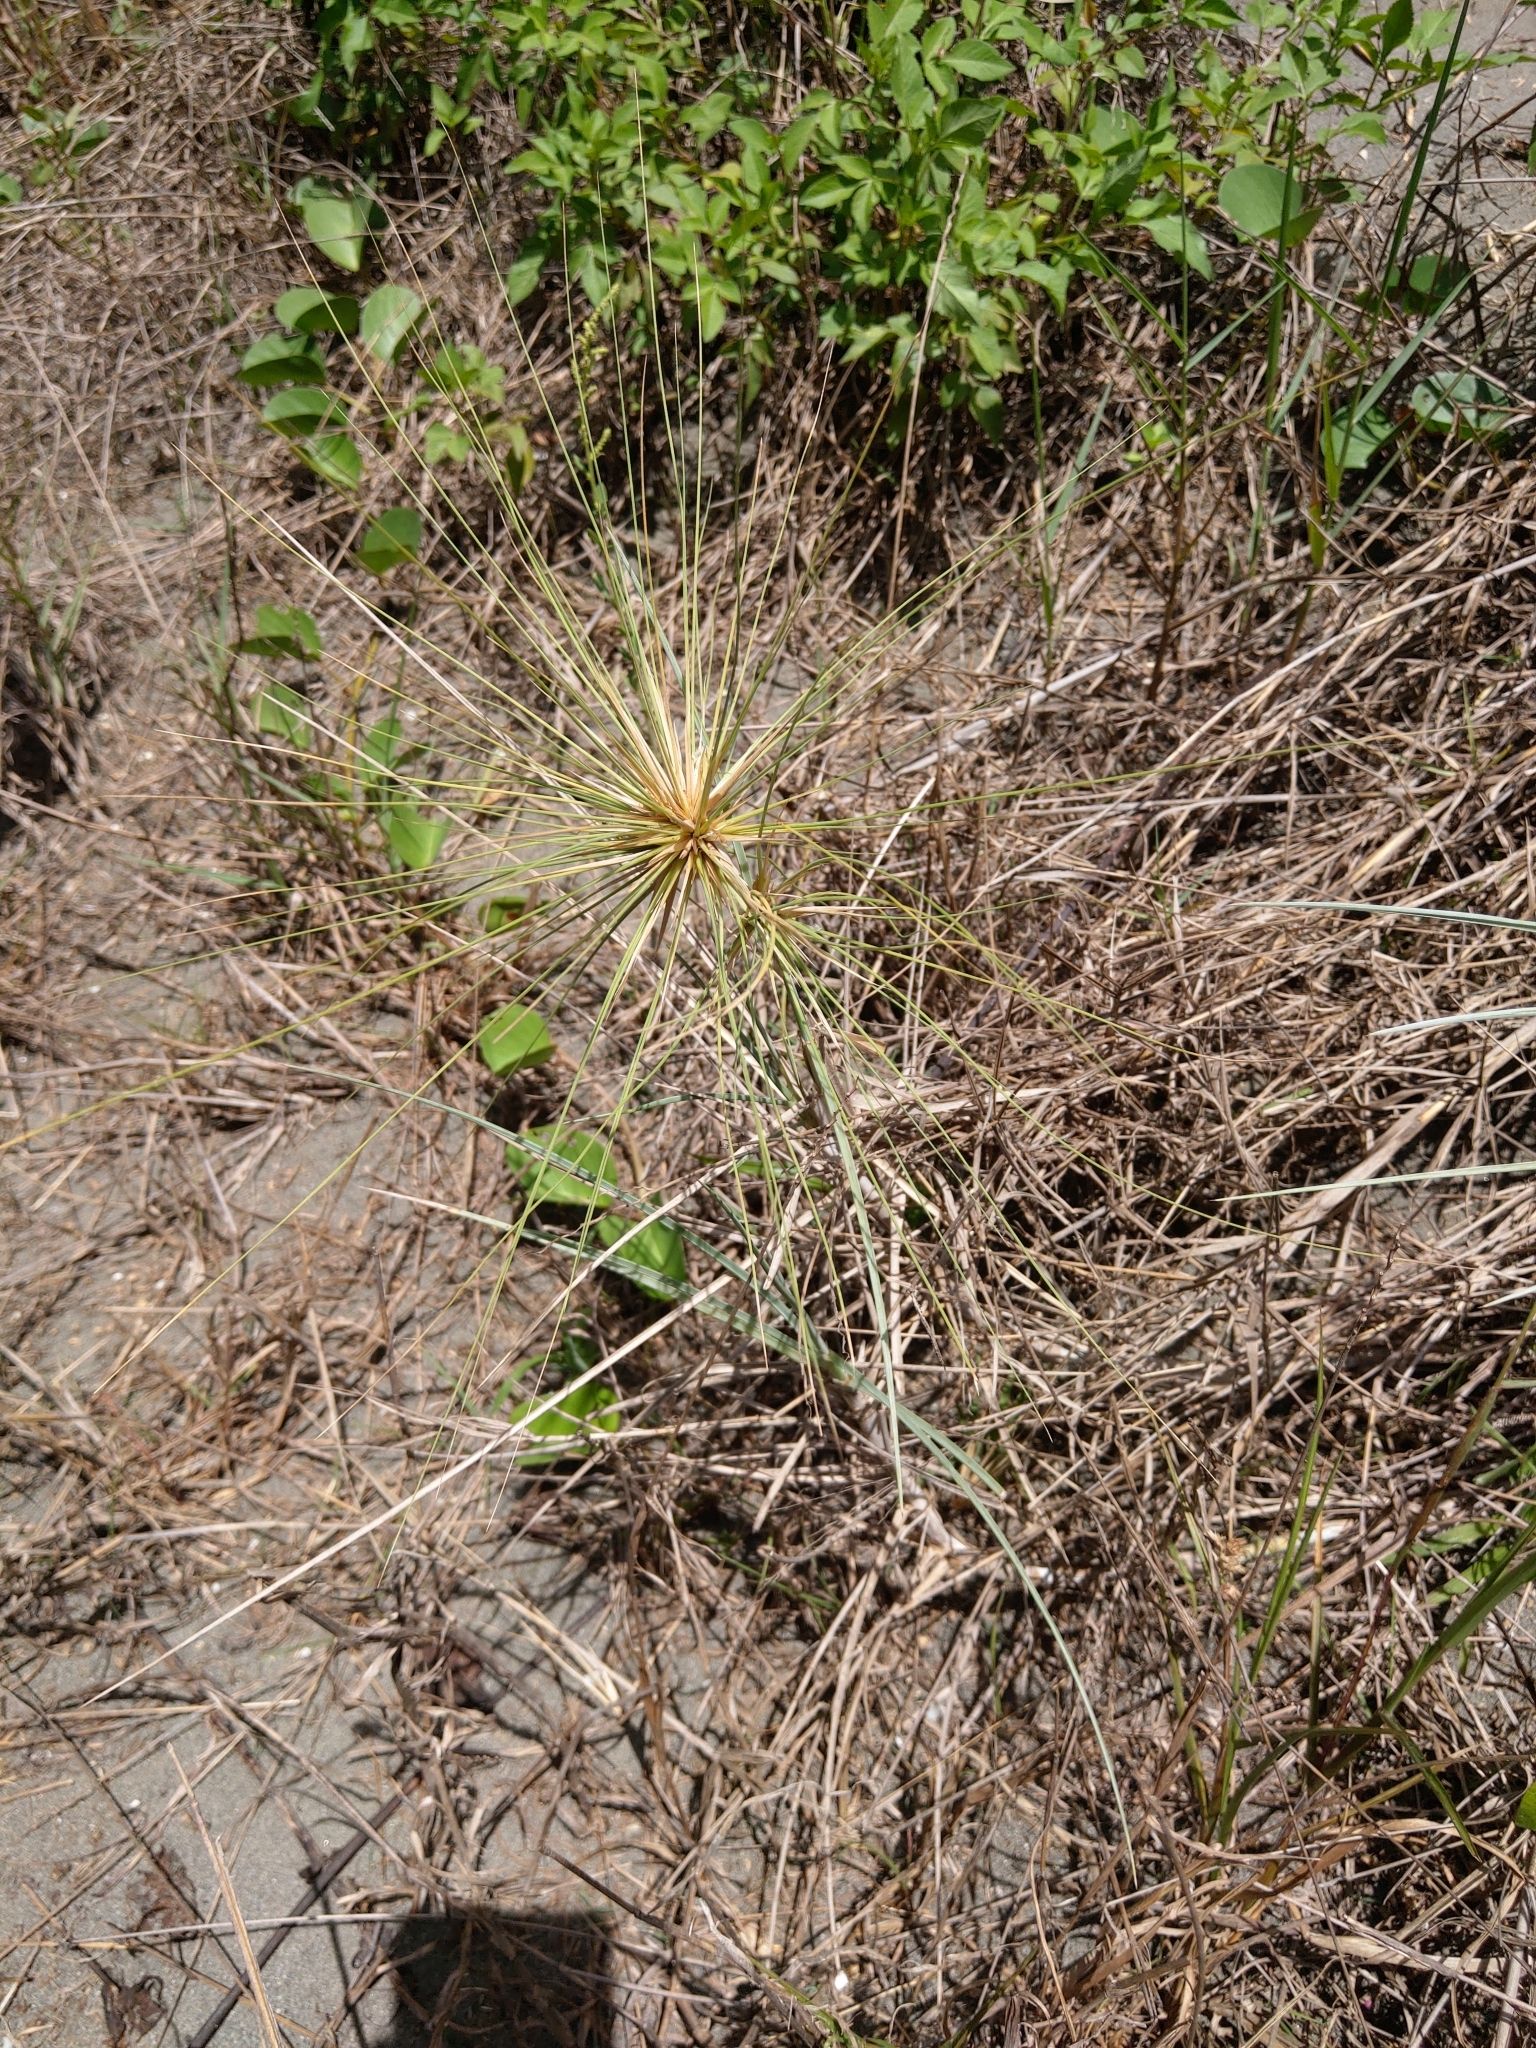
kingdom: Plantae
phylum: Tracheophyta
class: Liliopsida
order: Poales
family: Poaceae
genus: Spinifex
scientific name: Spinifex littoreus
